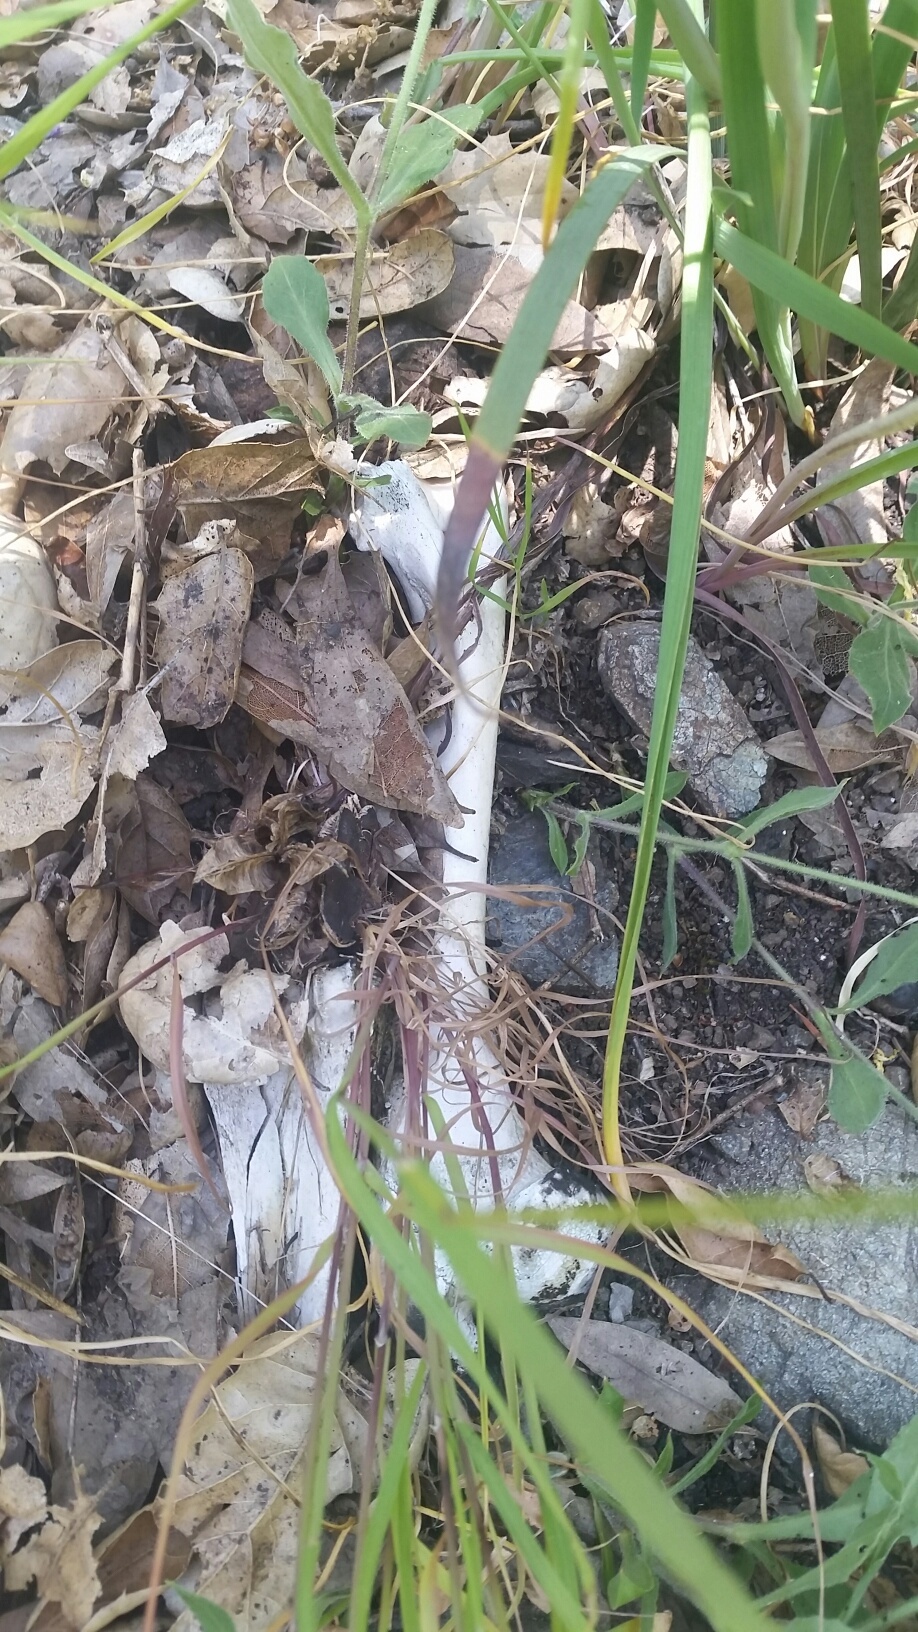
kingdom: Animalia
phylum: Chordata
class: Mammalia
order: Artiodactyla
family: Cervidae
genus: Odocoileus
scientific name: Odocoileus hemionus
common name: Mule deer
